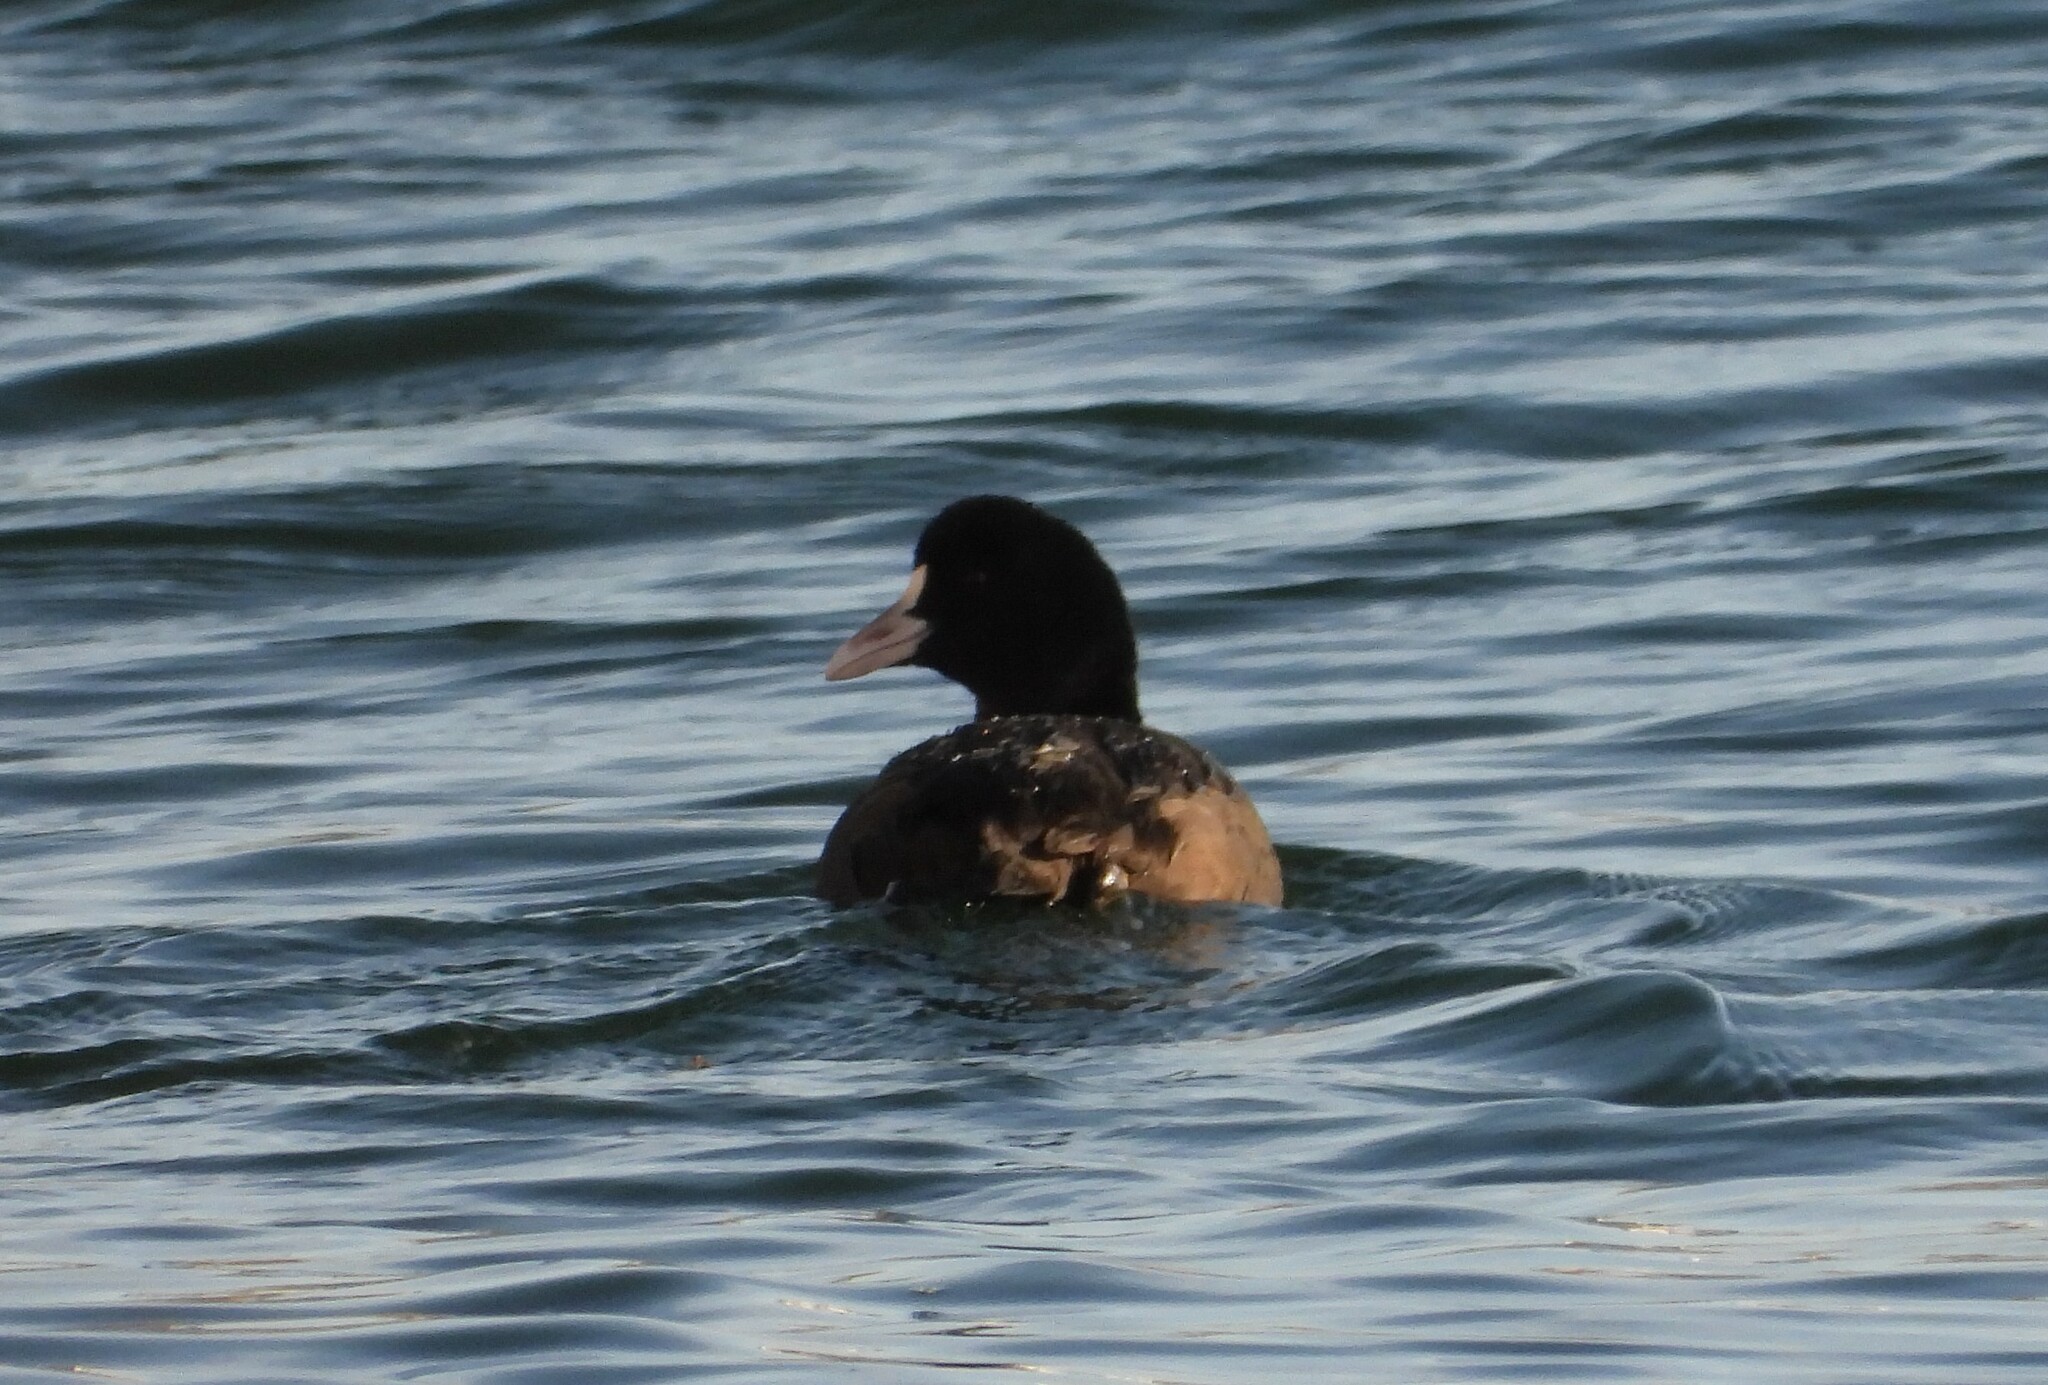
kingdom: Animalia
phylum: Chordata
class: Aves
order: Gruiformes
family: Rallidae
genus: Fulica
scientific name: Fulica atra
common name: Eurasian coot
